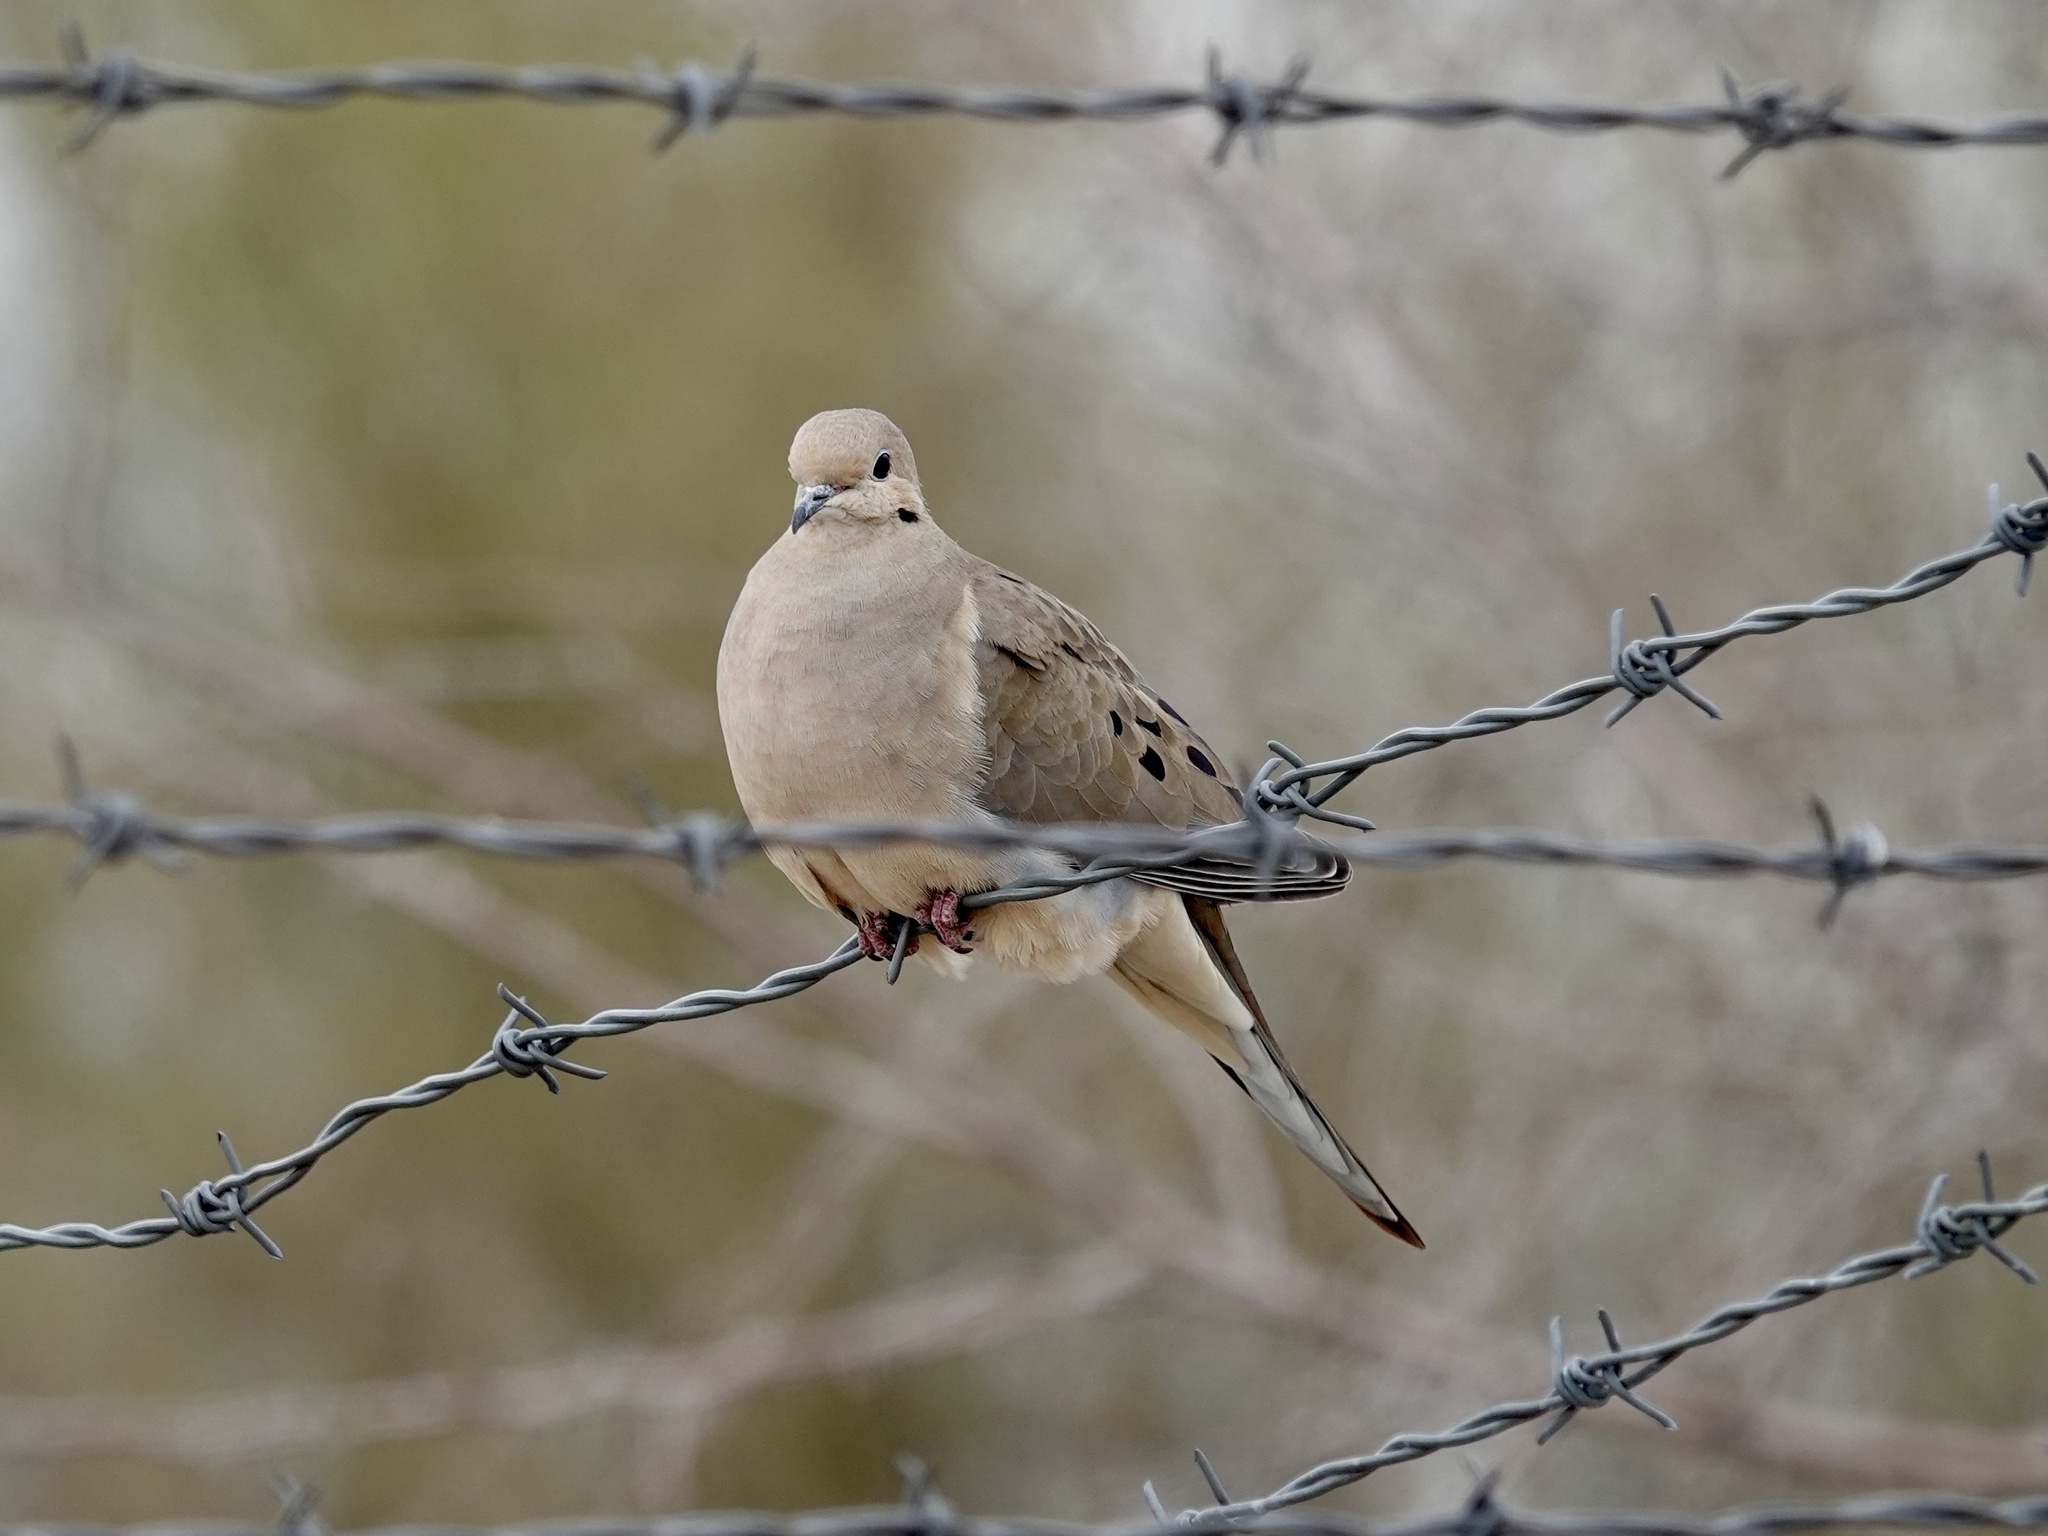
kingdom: Animalia
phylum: Chordata
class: Aves
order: Columbiformes
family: Columbidae
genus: Zenaida
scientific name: Zenaida macroura
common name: Mourning dove
